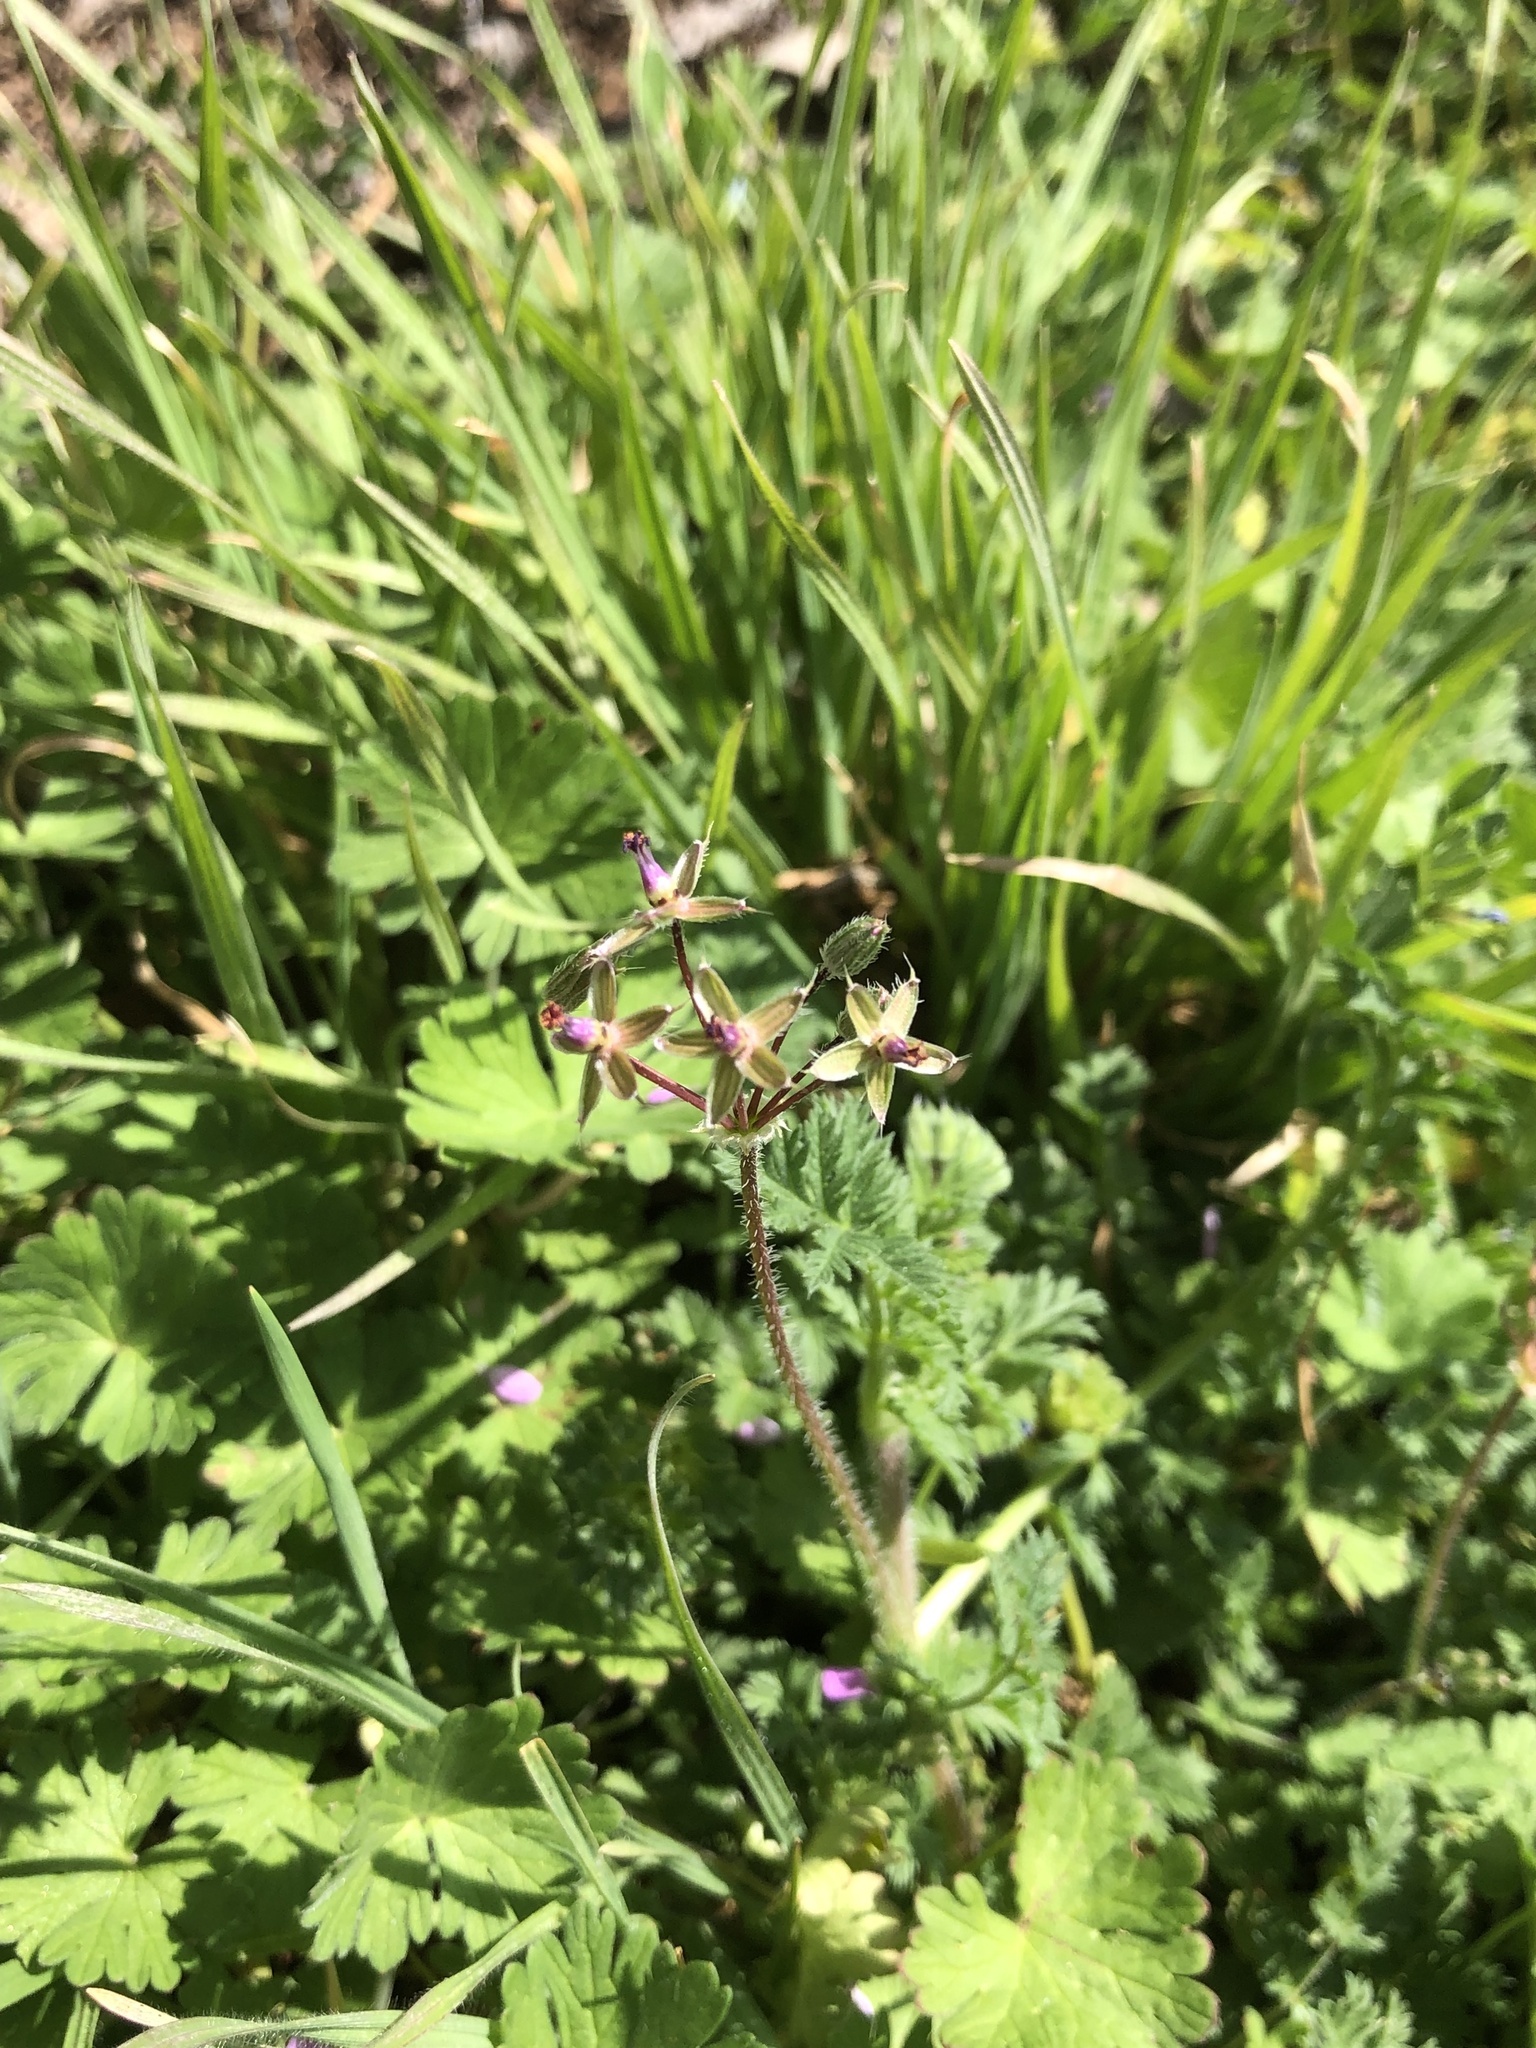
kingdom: Plantae
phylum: Tracheophyta
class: Magnoliopsida
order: Geraniales
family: Geraniaceae
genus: Erodium
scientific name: Erodium cicutarium
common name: Common stork's-bill
